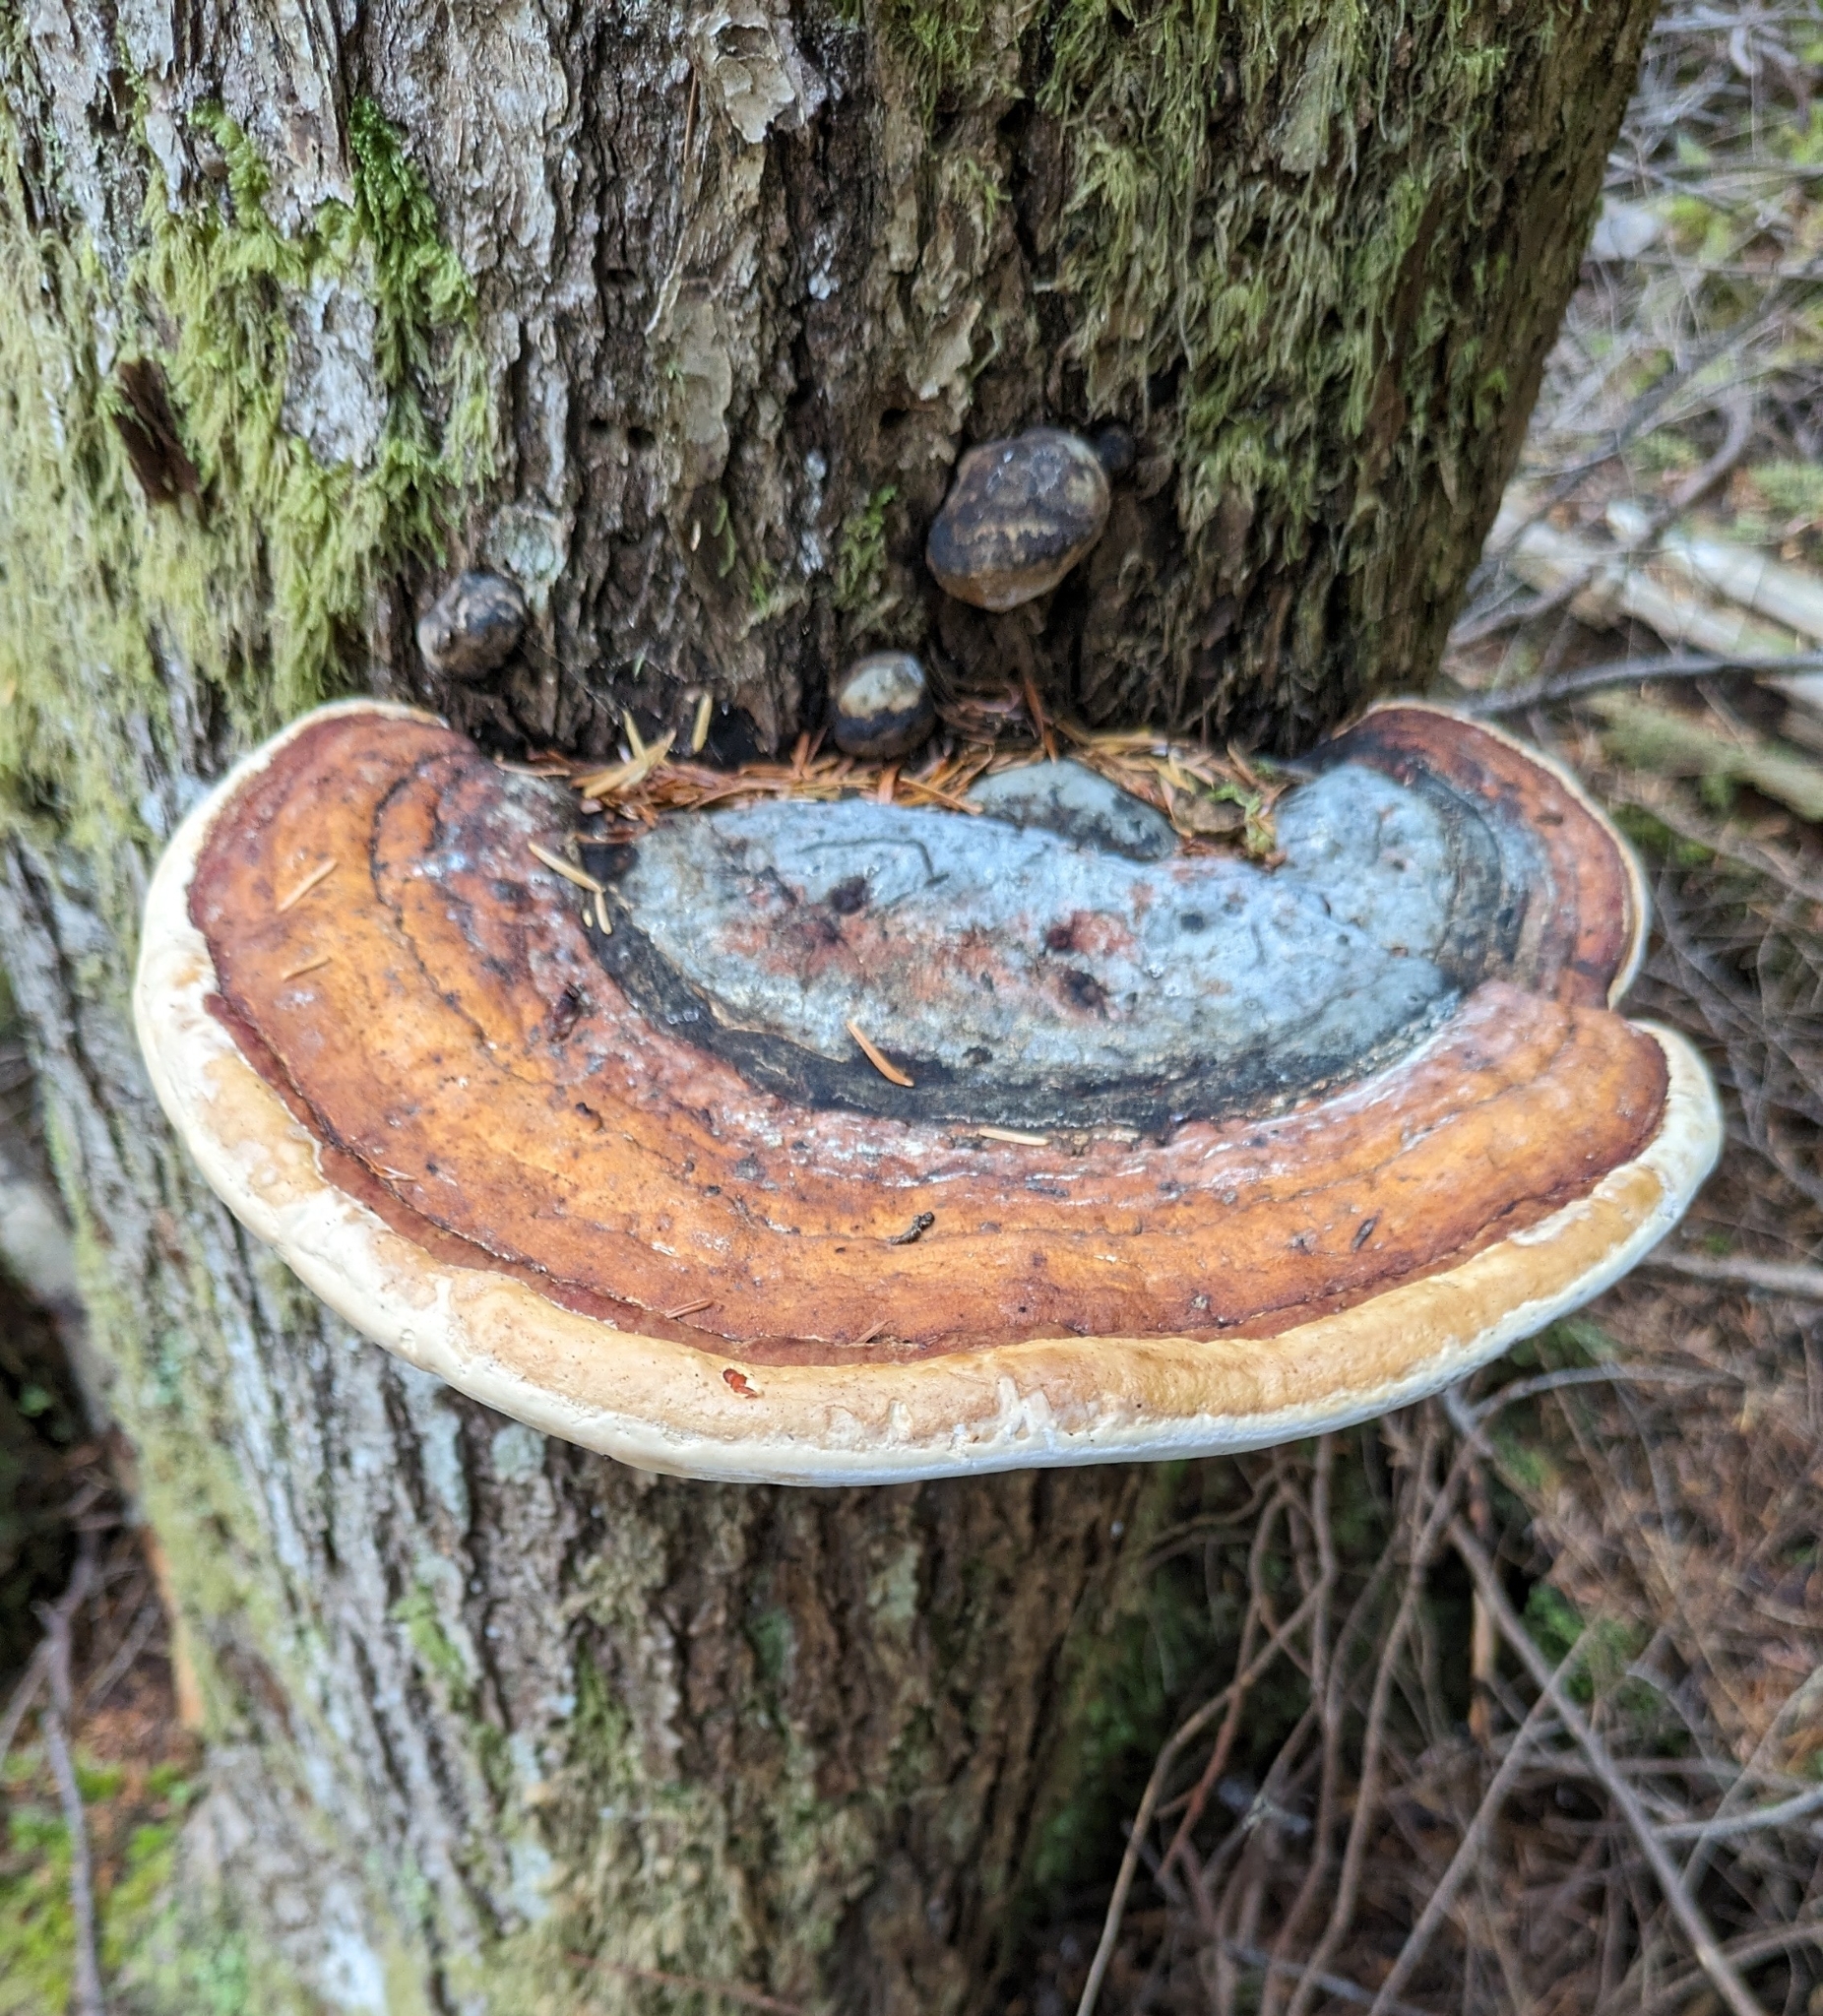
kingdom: Fungi
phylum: Basidiomycota
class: Agaricomycetes
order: Polyporales
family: Fomitopsidaceae
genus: Fomitopsis
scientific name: Fomitopsis mounceae
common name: Northern red belt
